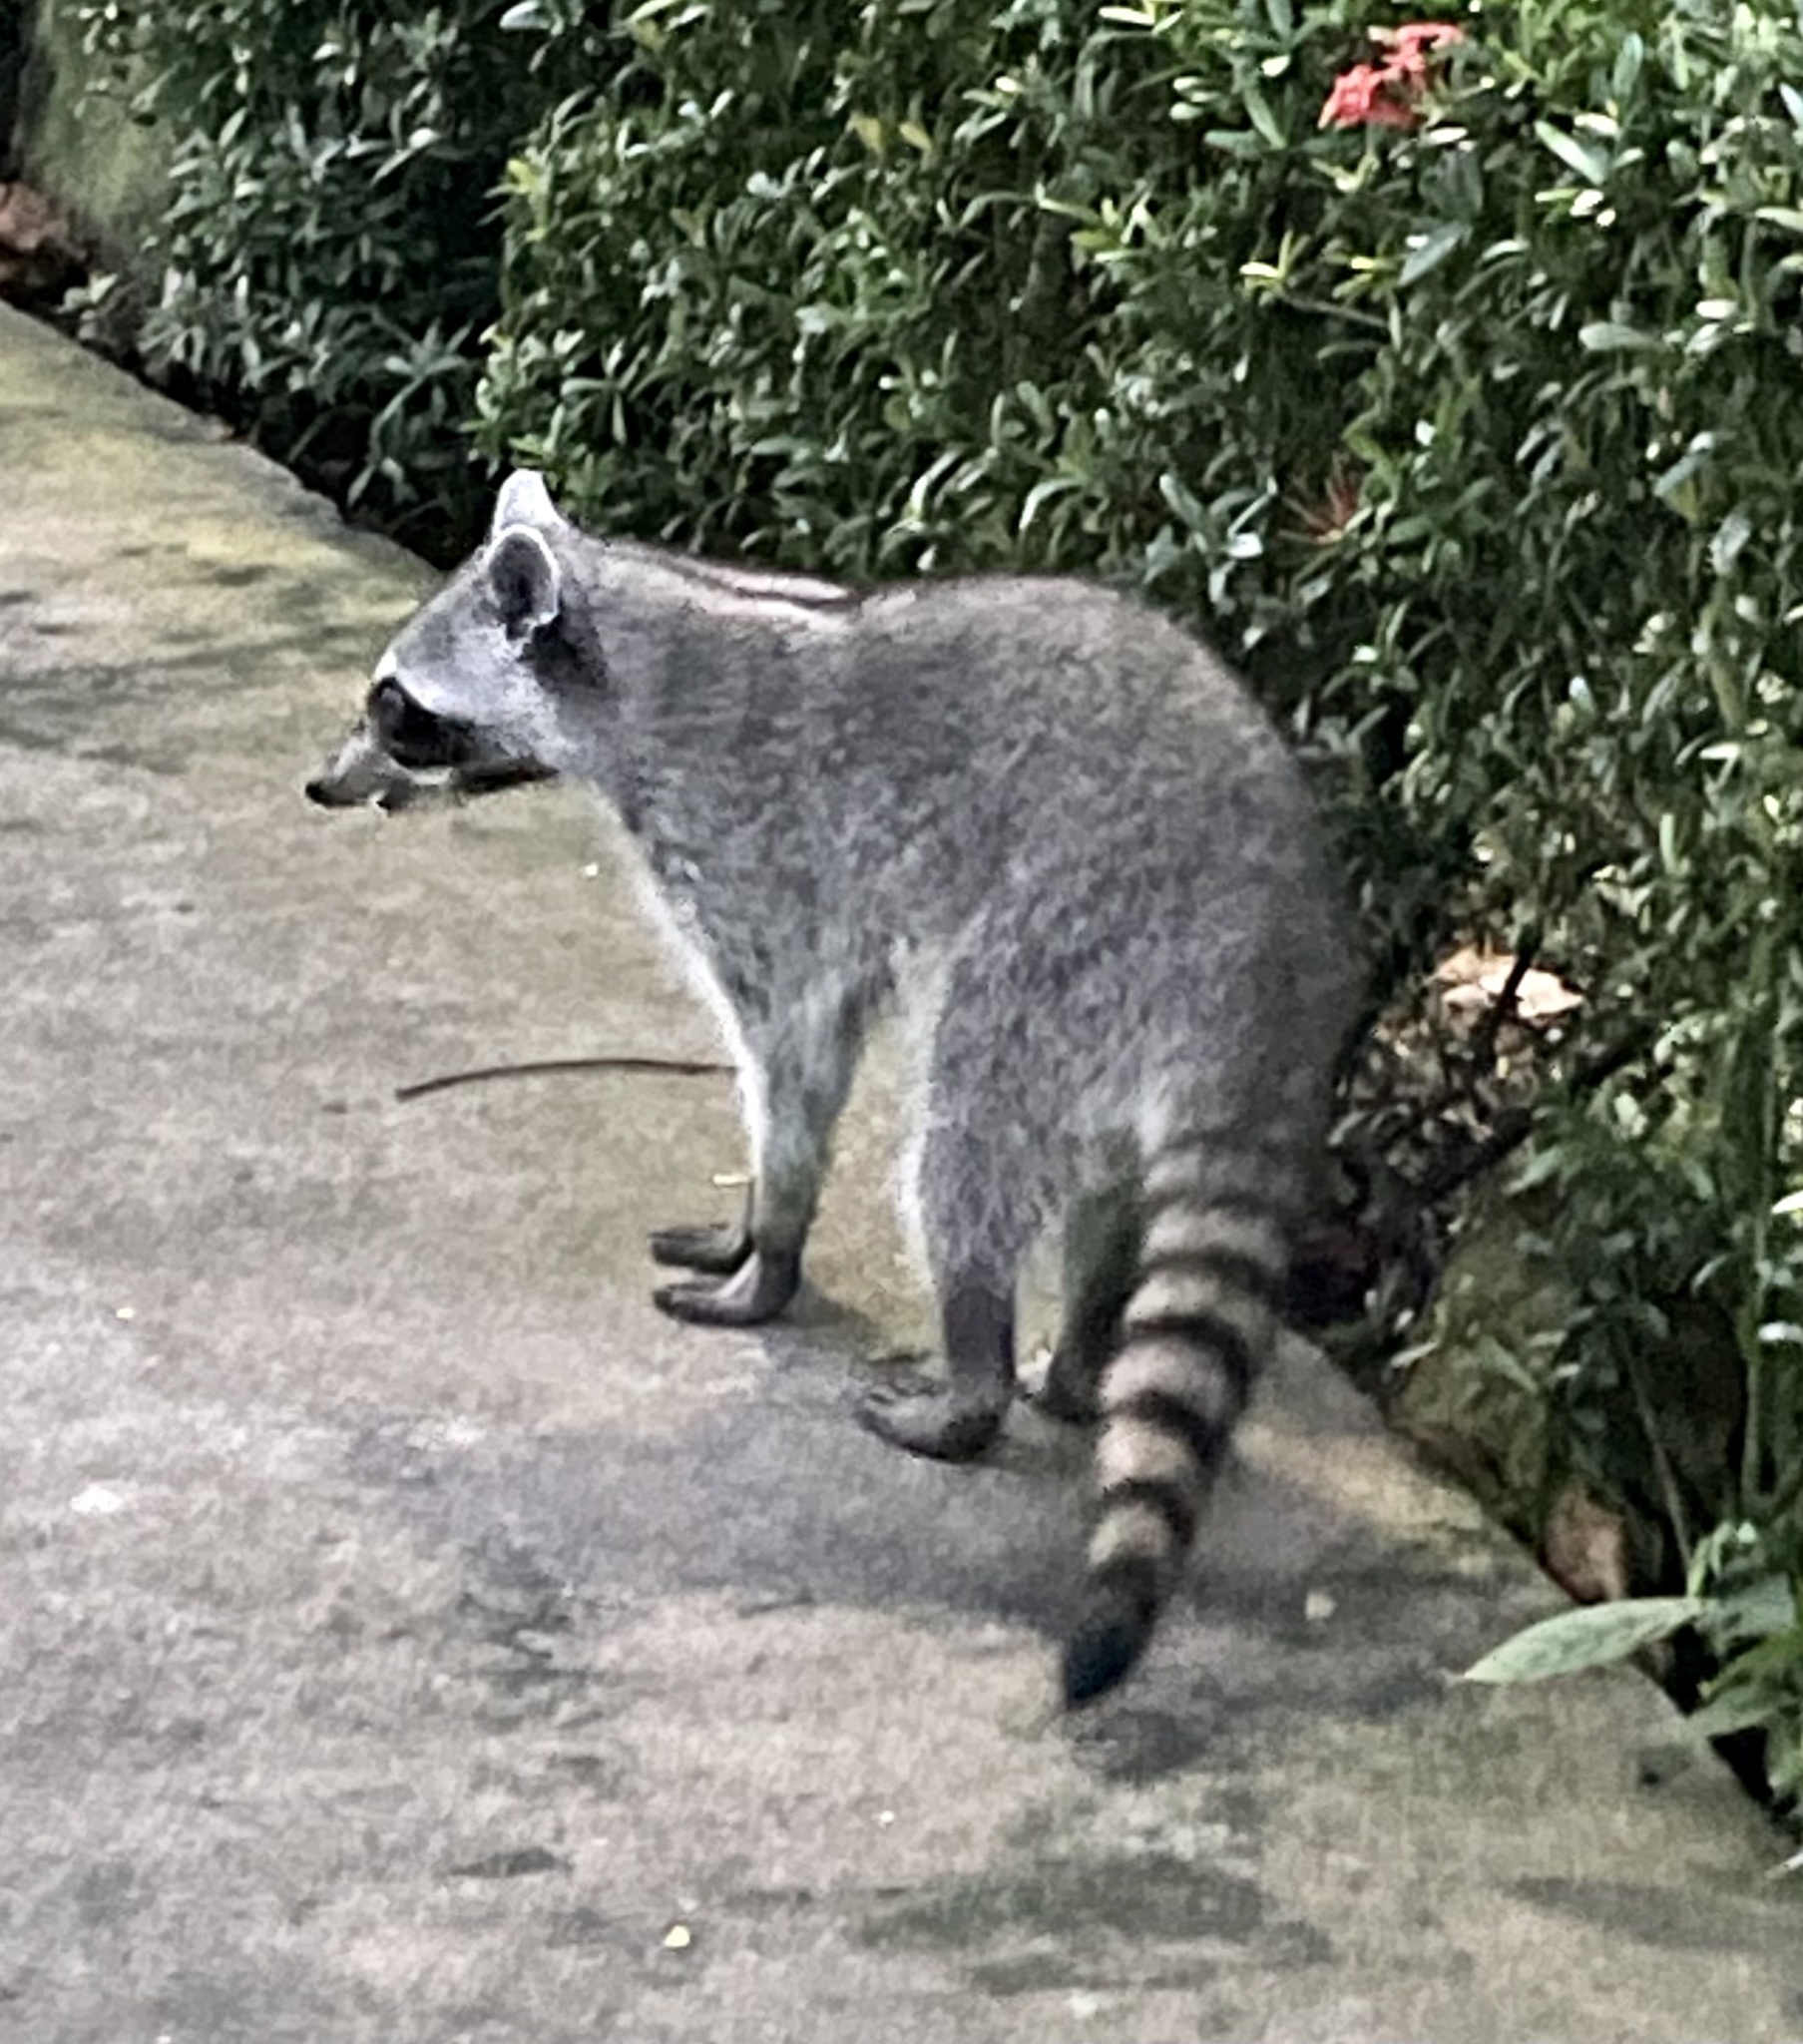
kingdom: Animalia
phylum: Chordata
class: Mammalia
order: Carnivora
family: Procyonidae
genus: Procyon
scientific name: Procyon lotor
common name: Raccoon
